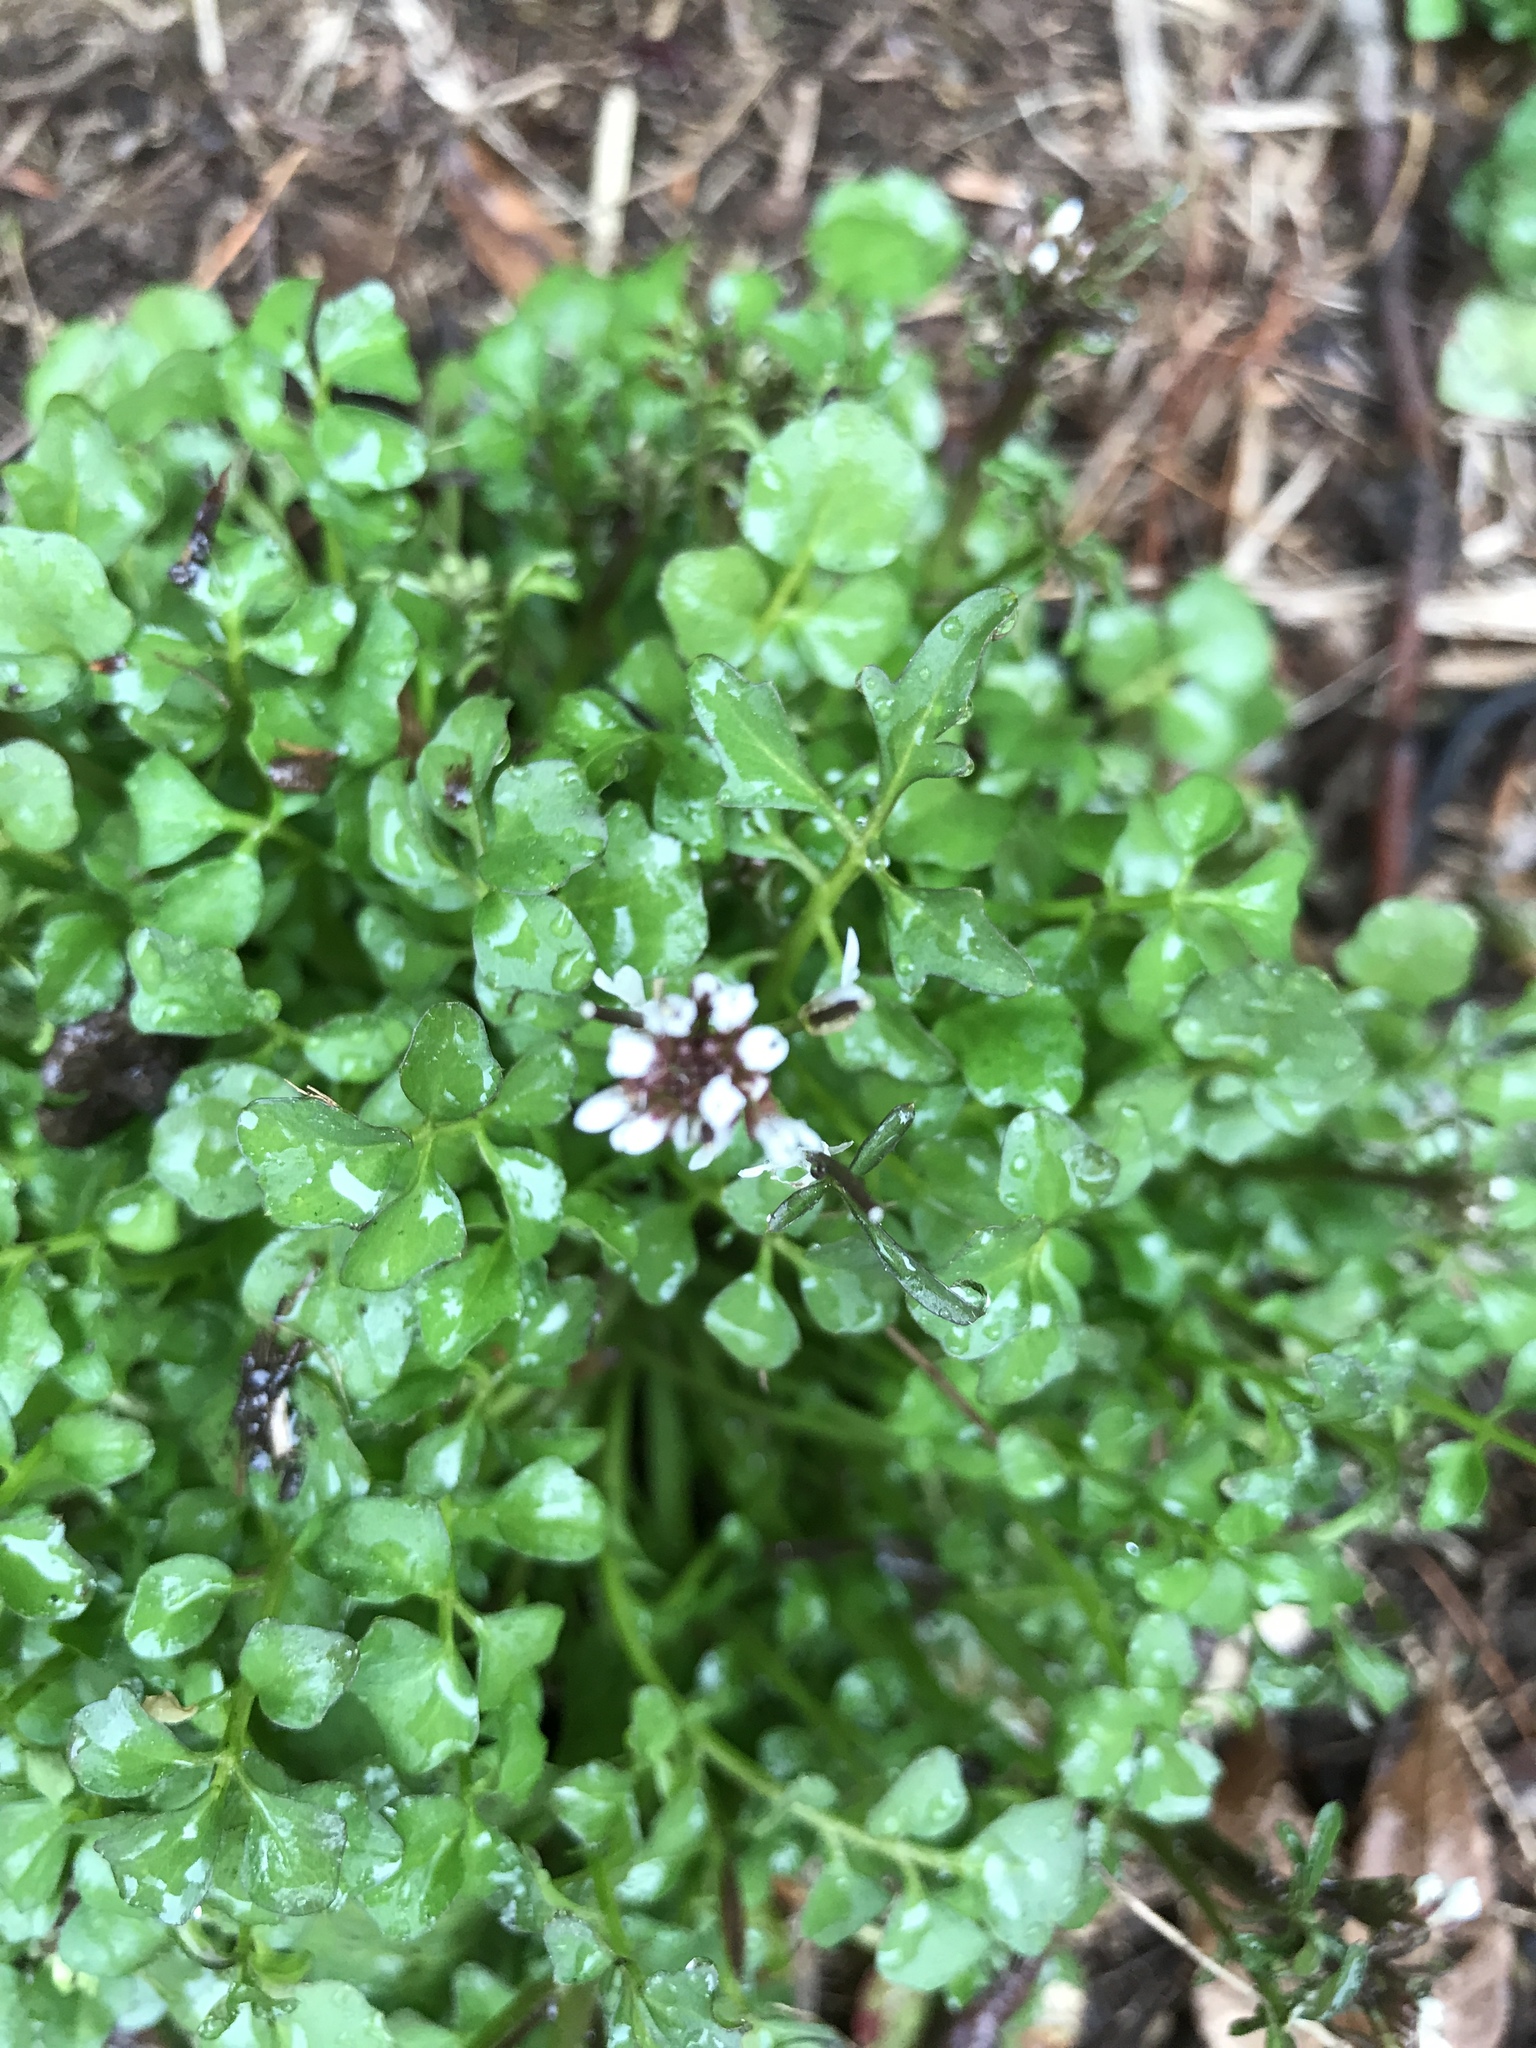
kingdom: Plantae
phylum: Tracheophyta
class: Magnoliopsida
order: Brassicales
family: Brassicaceae
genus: Cardamine
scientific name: Cardamine hirsuta
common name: Hairy bittercress
